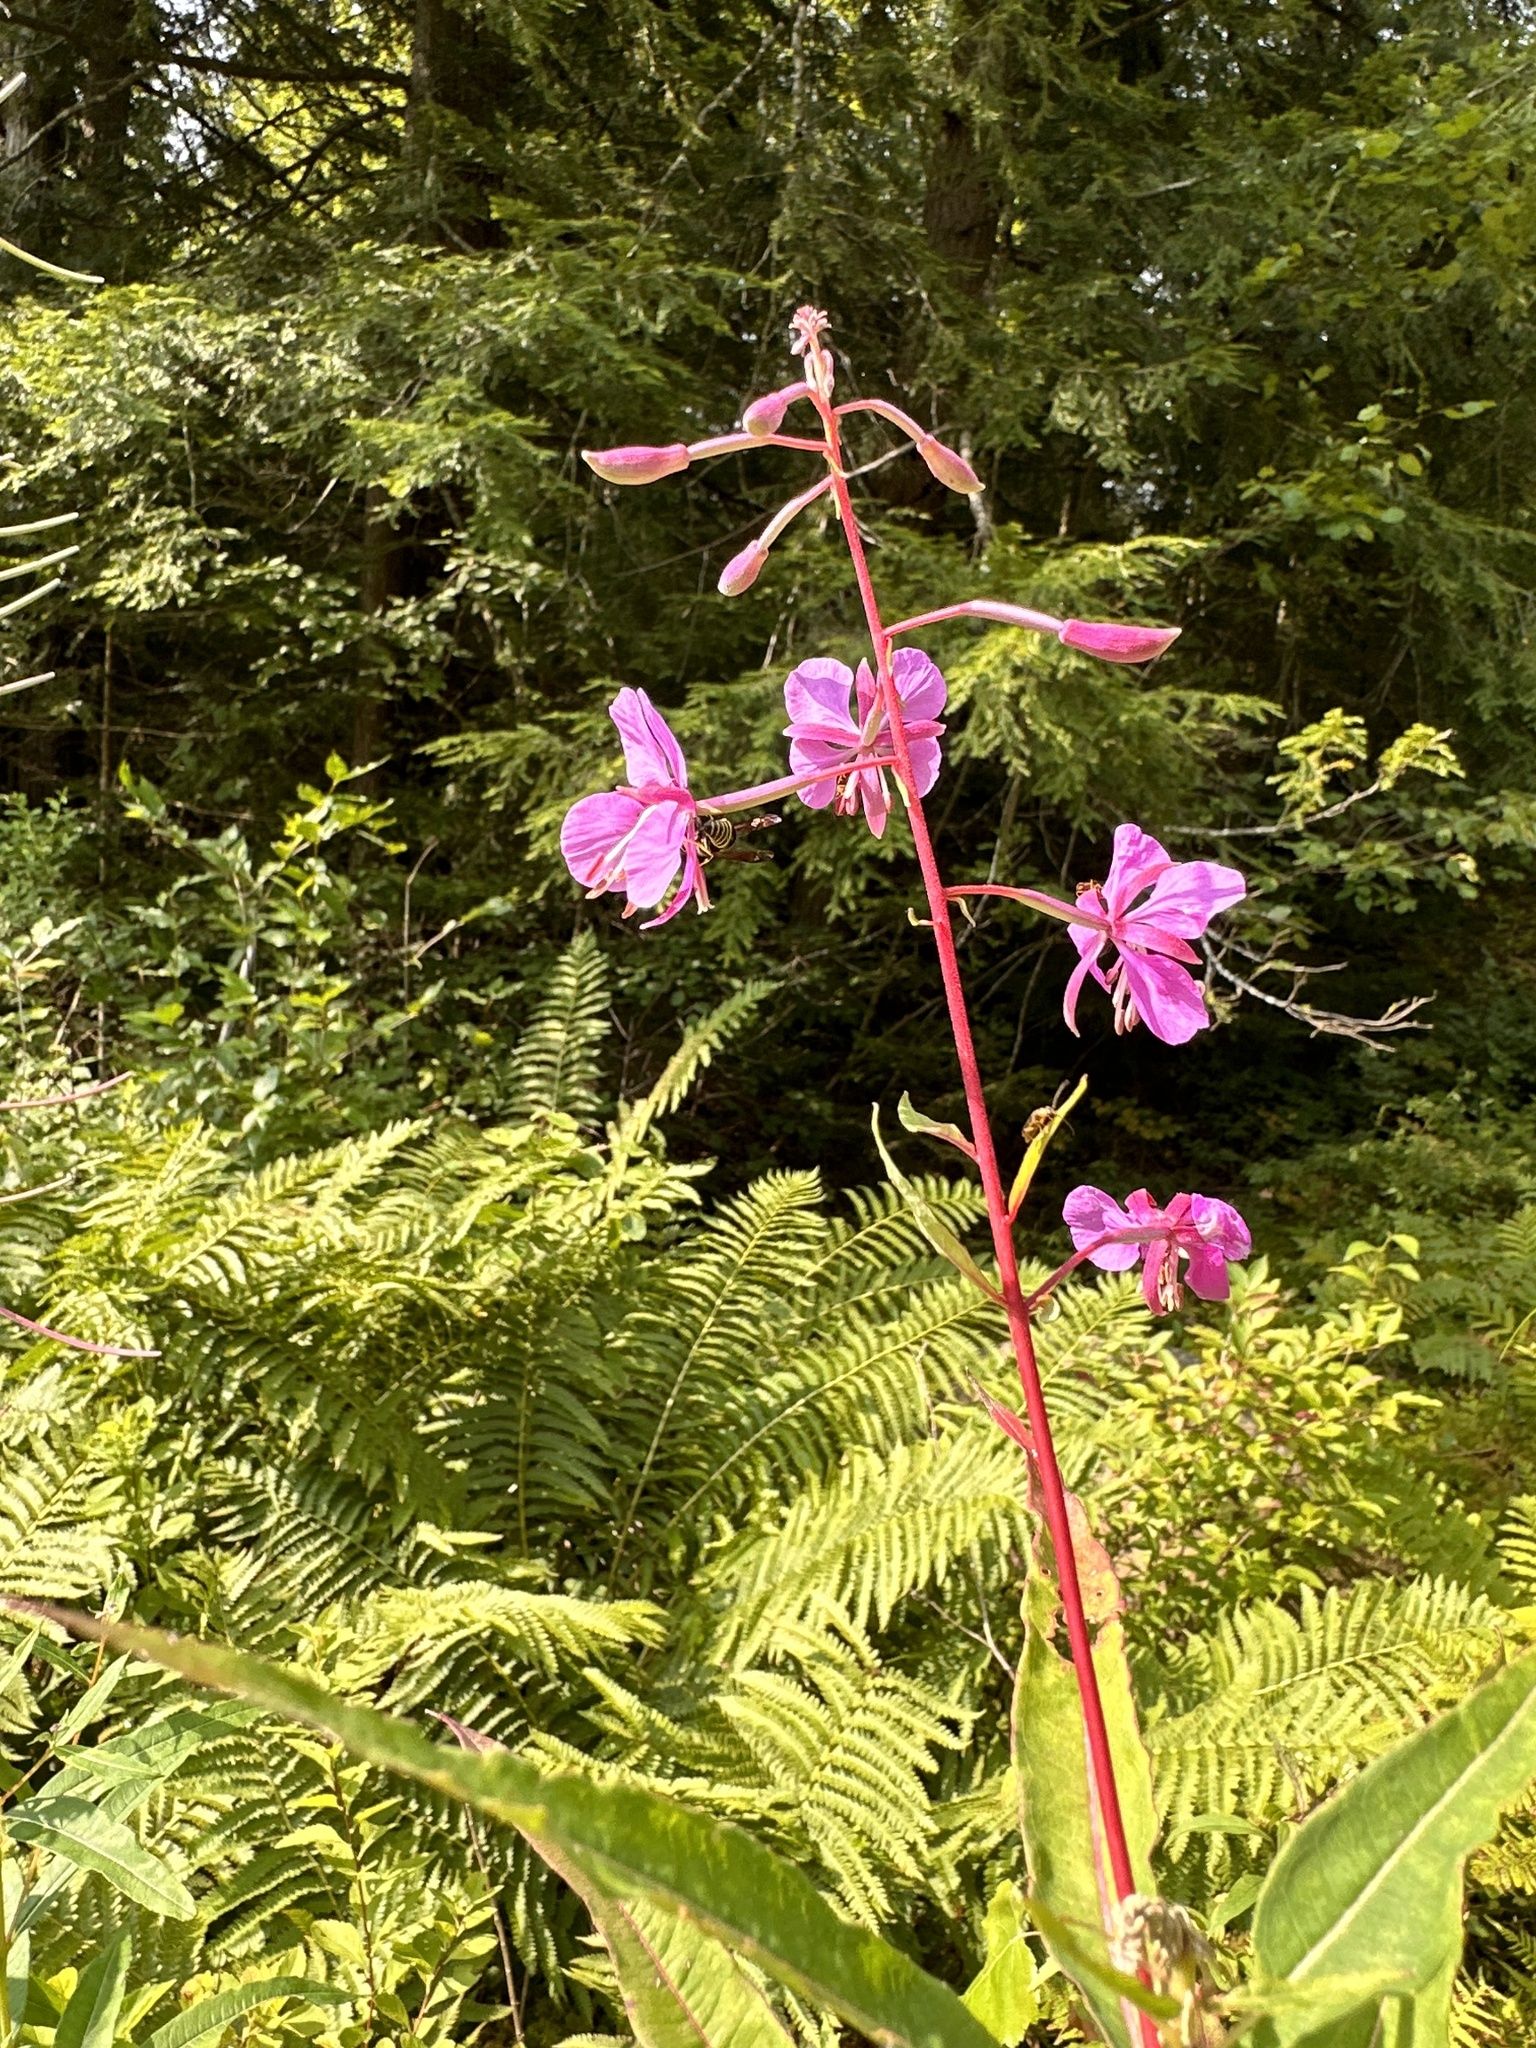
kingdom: Plantae
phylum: Tracheophyta
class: Magnoliopsida
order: Myrtales
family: Onagraceae
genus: Chamaenerion
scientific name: Chamaenerion angustifolium
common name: Fireweed
